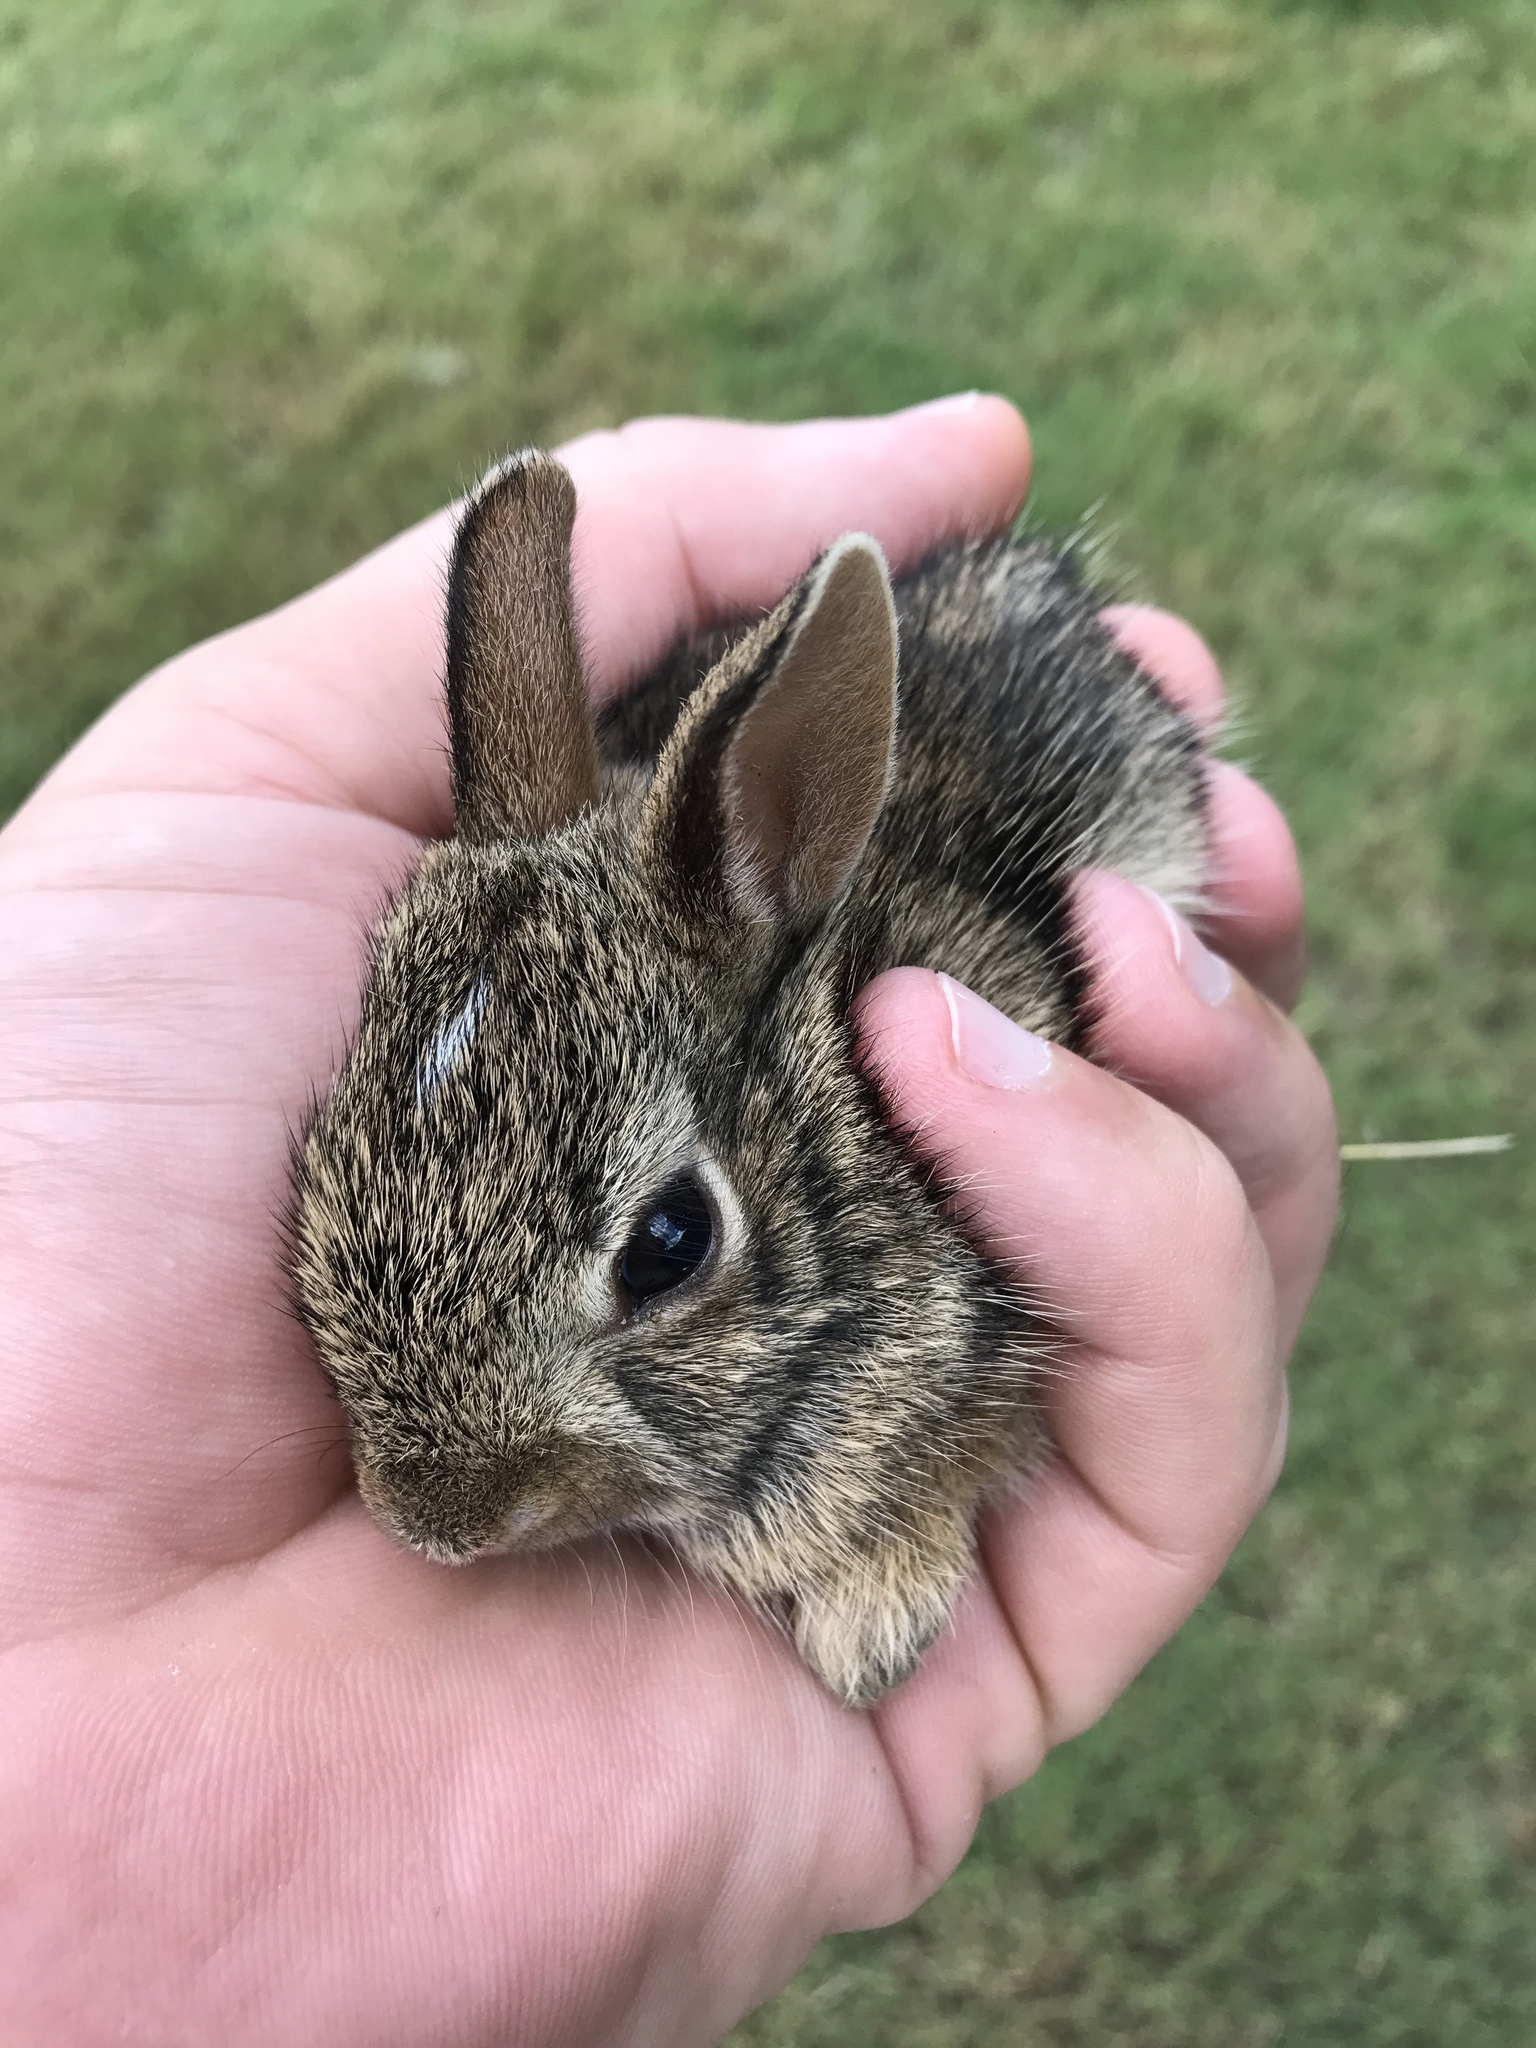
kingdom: Animalia
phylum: Chordata
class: Mammalia
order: Lagomorpha
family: Leporidae
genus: Sylvilagus
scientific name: Sylvilagus floridanus
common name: Eastern cottontail
